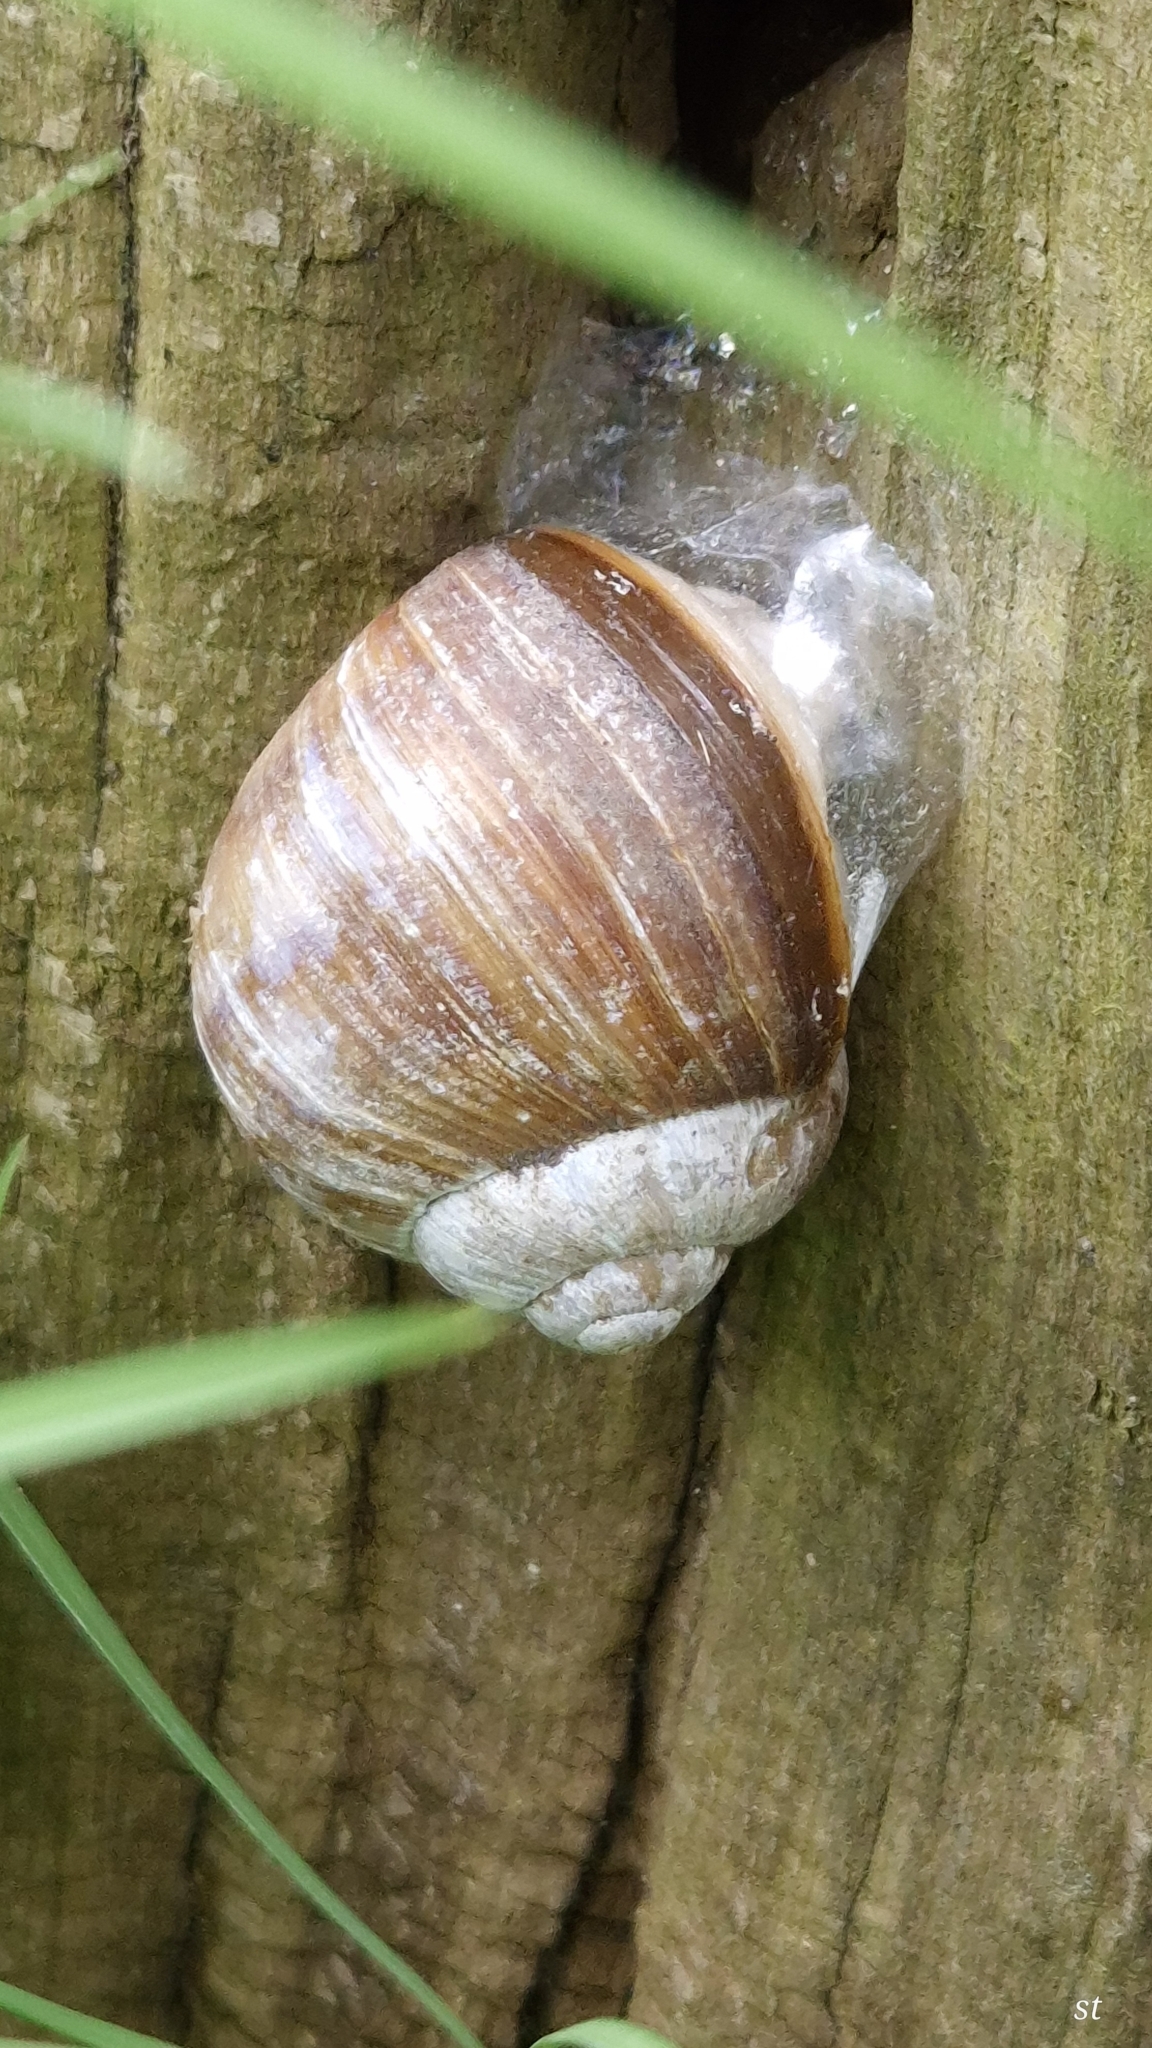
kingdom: Animalia
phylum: Mollusca
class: Gastropoda
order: Stylommatophora
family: Helicidae
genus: Helix
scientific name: Helix pomatia
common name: Roman snail
